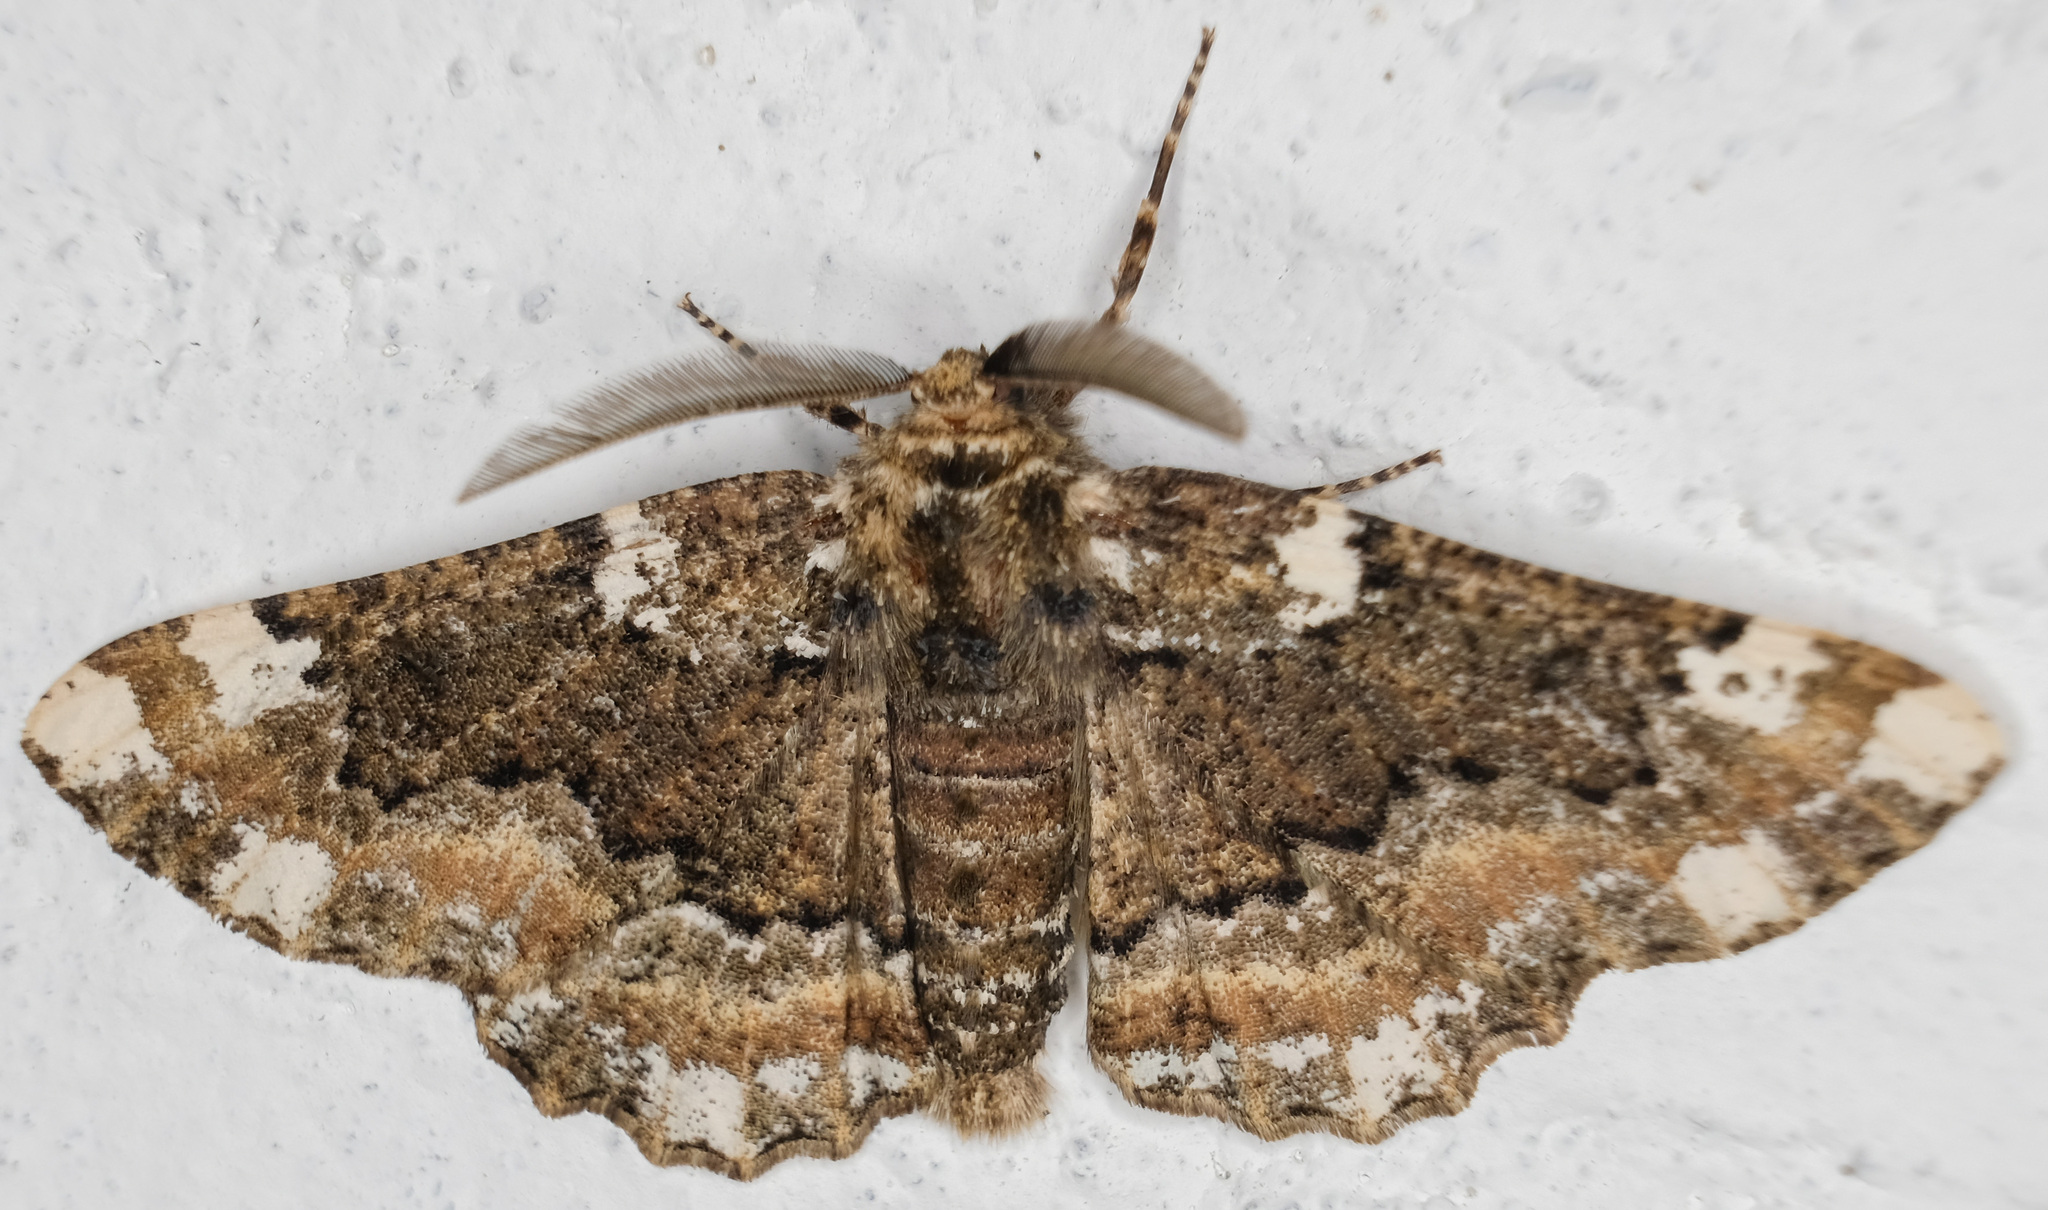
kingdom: Animalia
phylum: Arthropoda
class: Insecta
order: Lepidoptera
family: Geometridae
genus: Phaeoura
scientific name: Phaeoura quernaria
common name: Oak beauty
